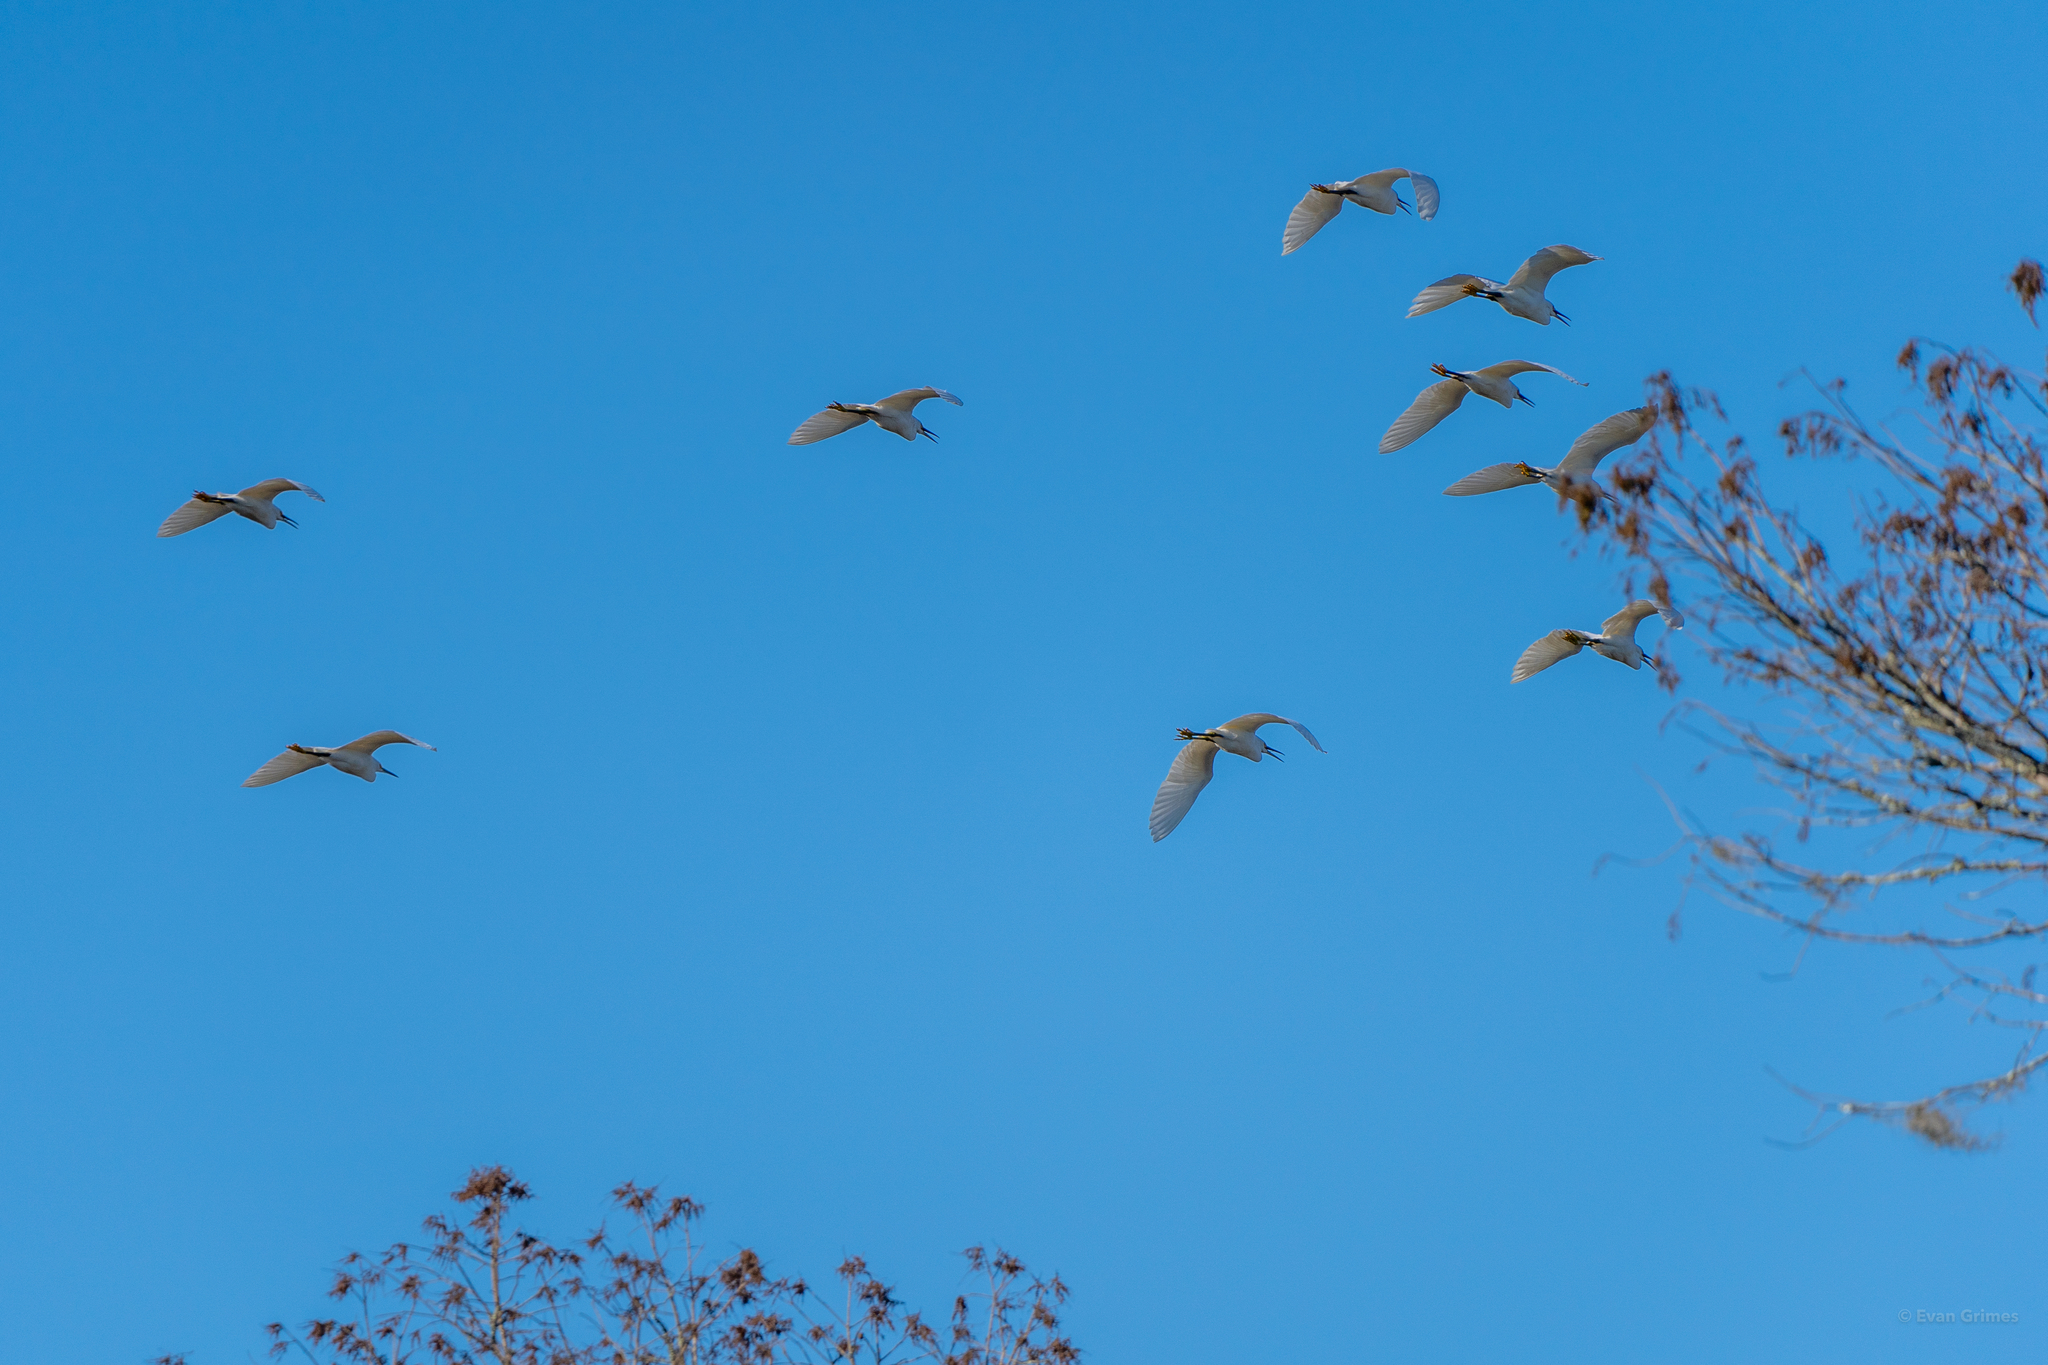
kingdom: Animalia
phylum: Chordata
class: Aves
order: Pelecaniformes
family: Ardeidae
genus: Egretta
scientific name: Egretta thula
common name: Snowy egret
